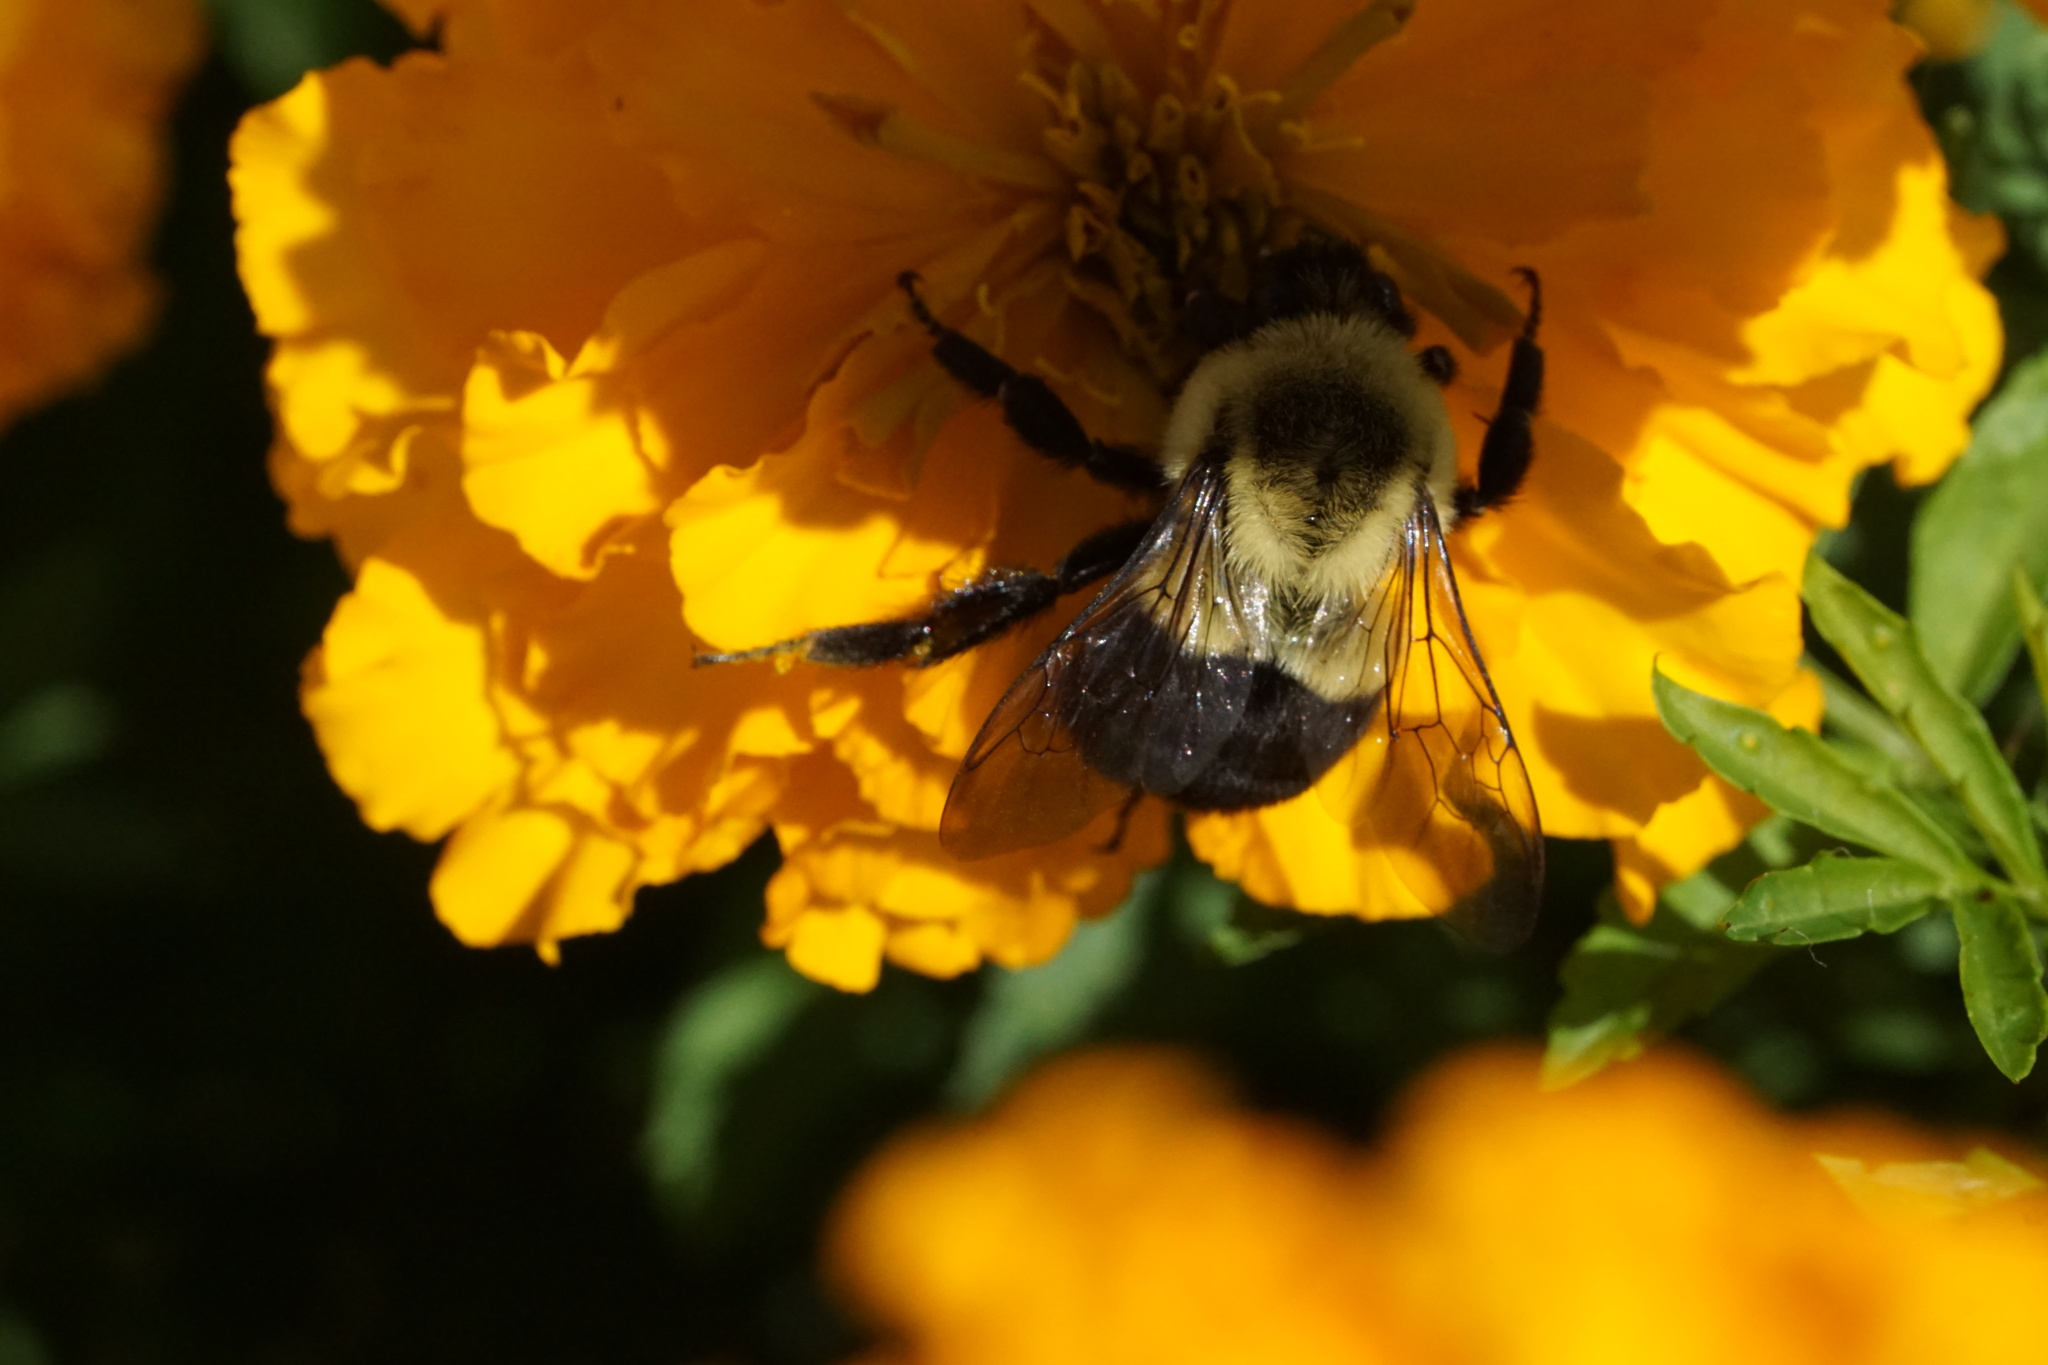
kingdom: Animalia
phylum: Arthropoda
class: Insecta
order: Hymenoptera
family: Apidae
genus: Bombus
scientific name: Bombus impatiens
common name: Common eastern bumble bee
